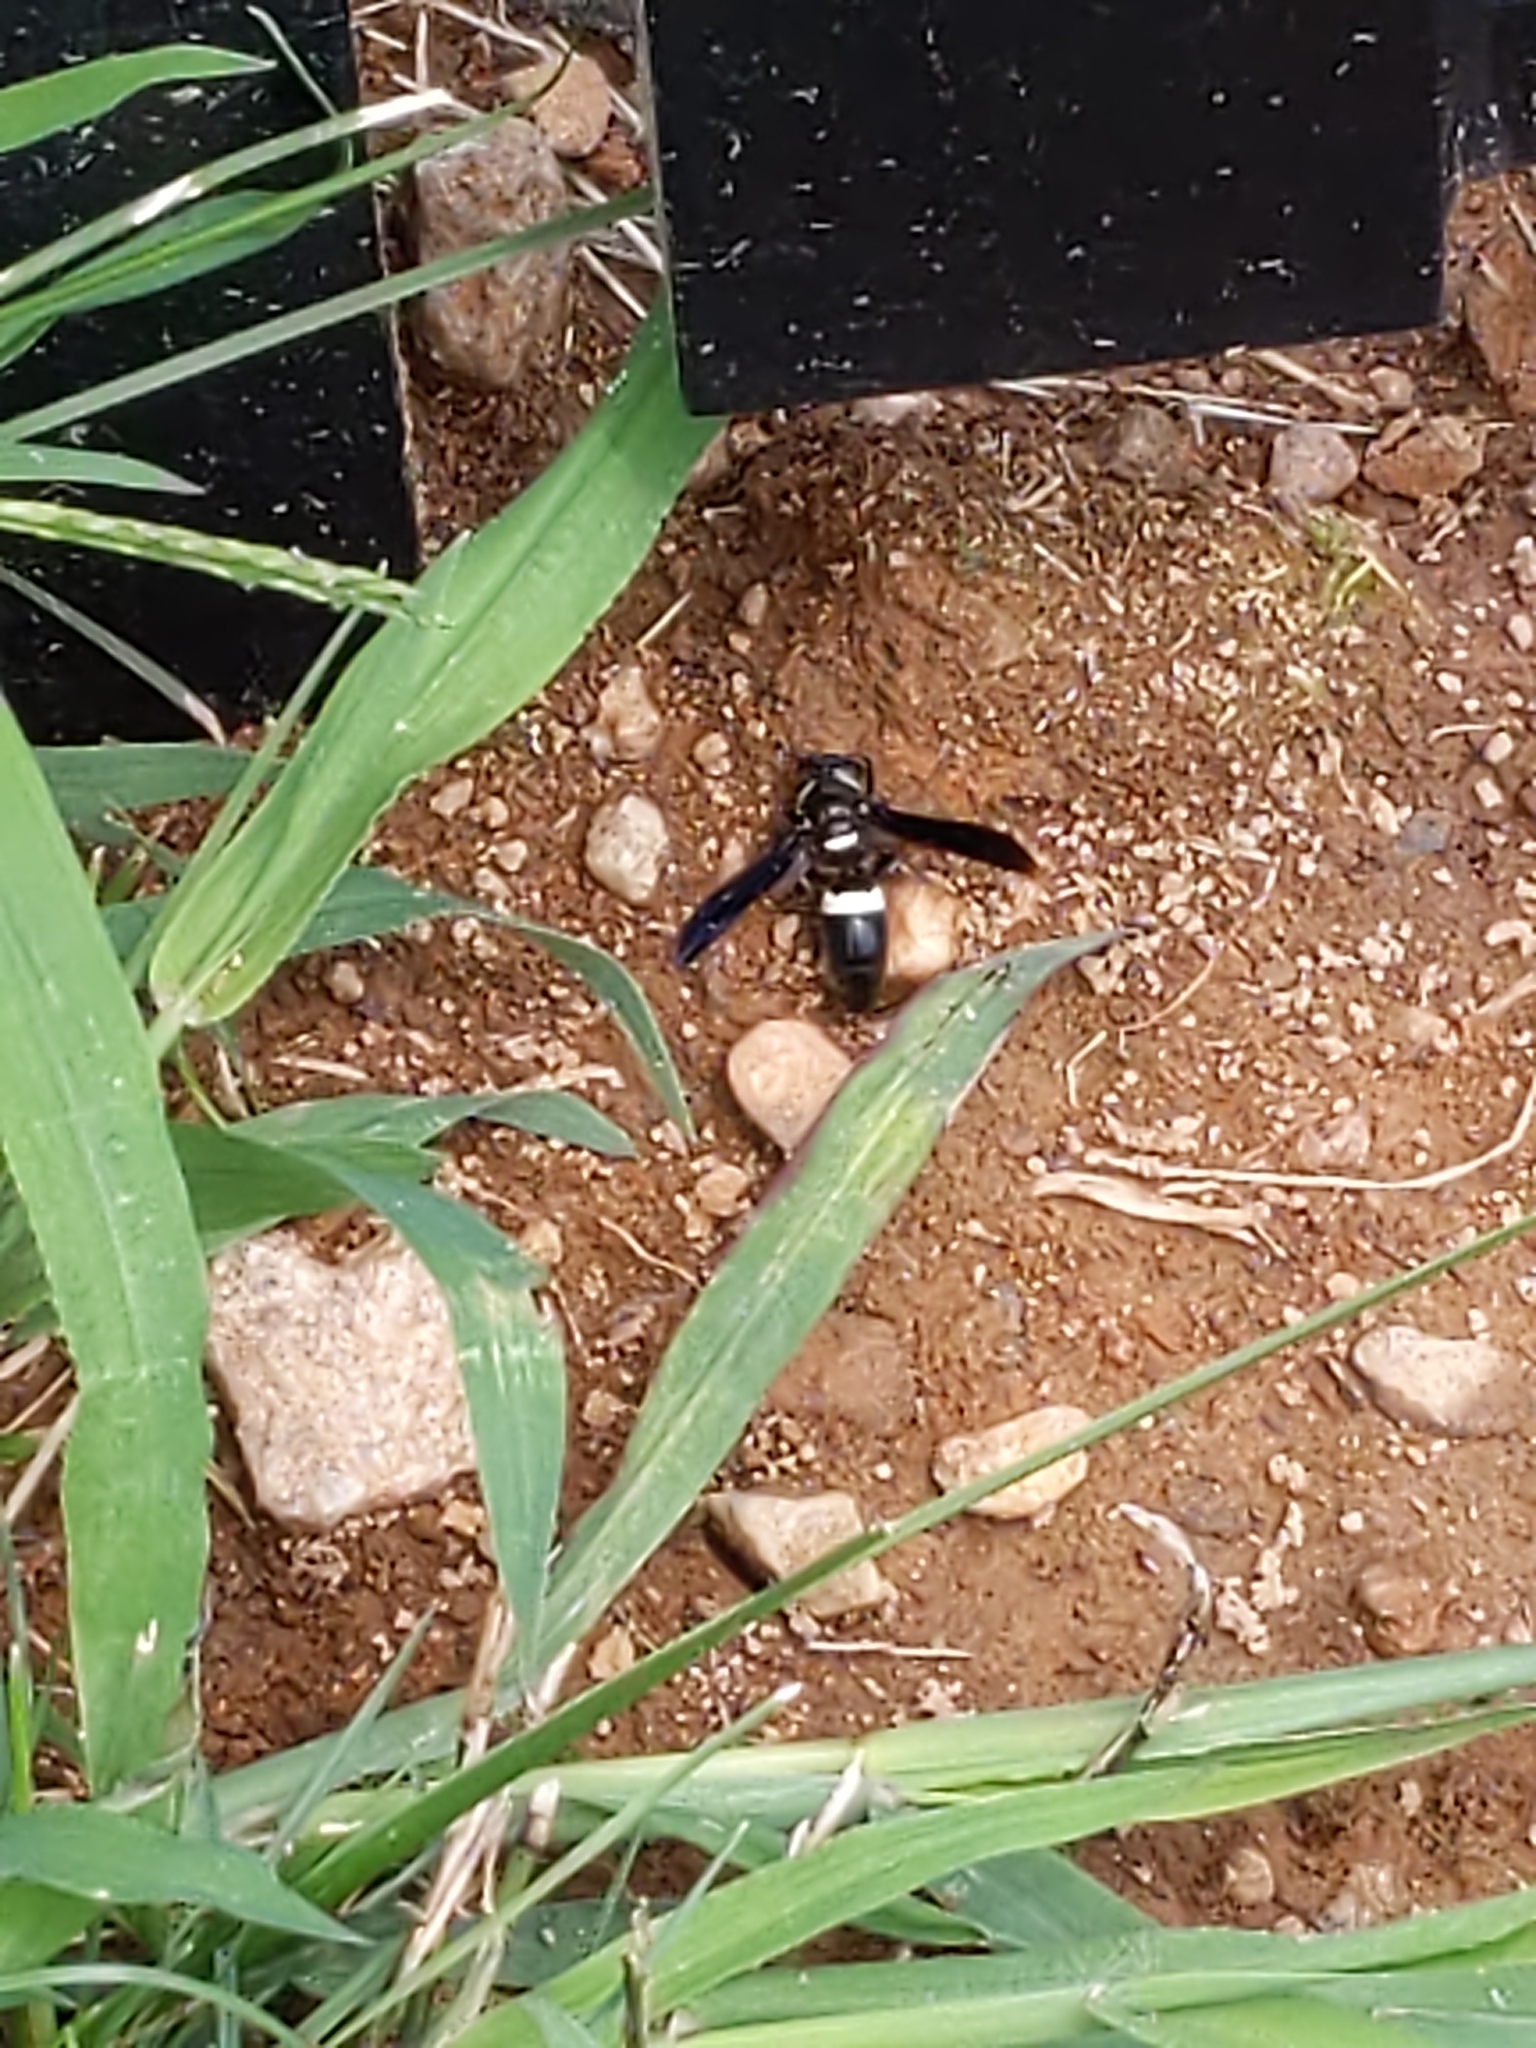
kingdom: Animalia
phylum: Arthropoda
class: Insecta
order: Hymenoptera
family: Eumenidae
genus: Monobia
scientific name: Monobia quadridens
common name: Four-toothed mason wasp
